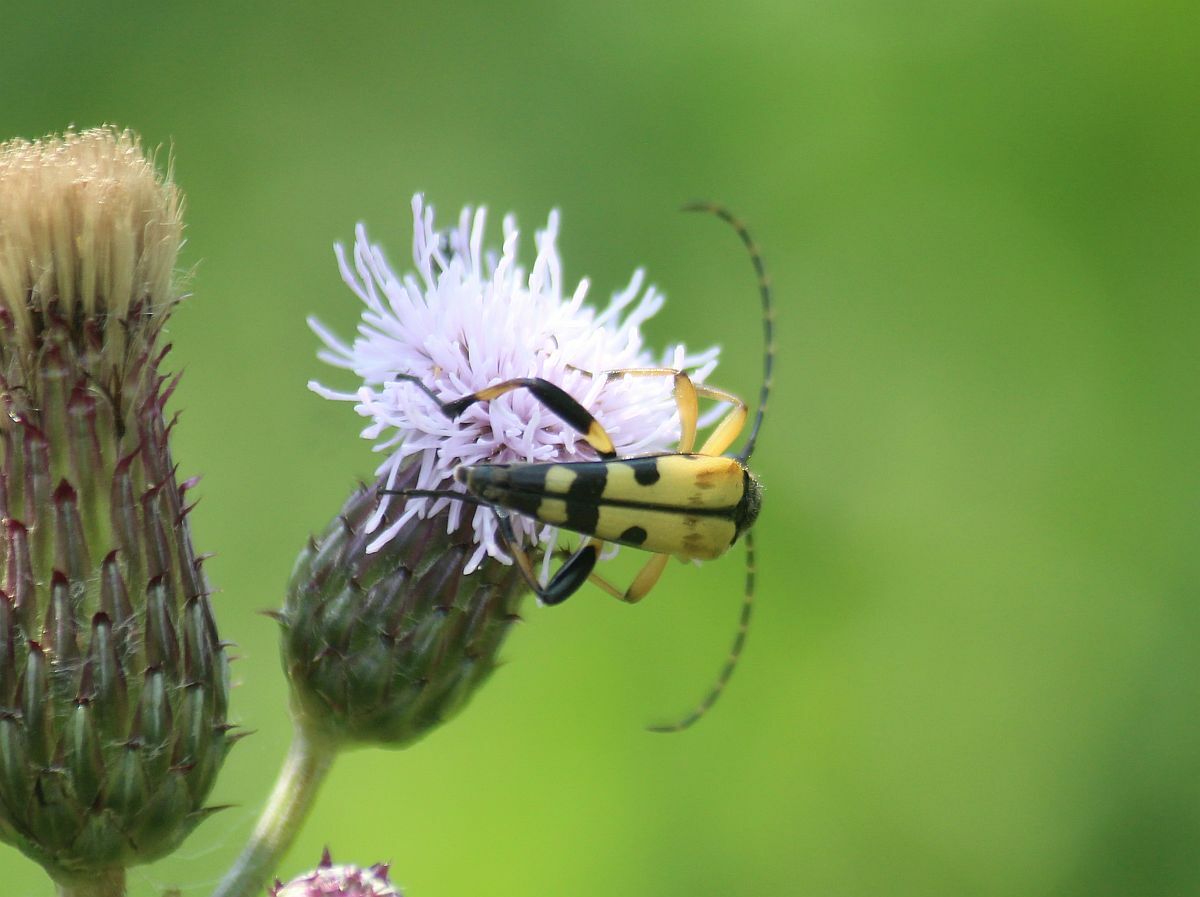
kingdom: Animalia
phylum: Arthropoda
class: Insecta
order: Coleoptera
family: Cerambycidae
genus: Rutpela
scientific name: Rutpela maculata
